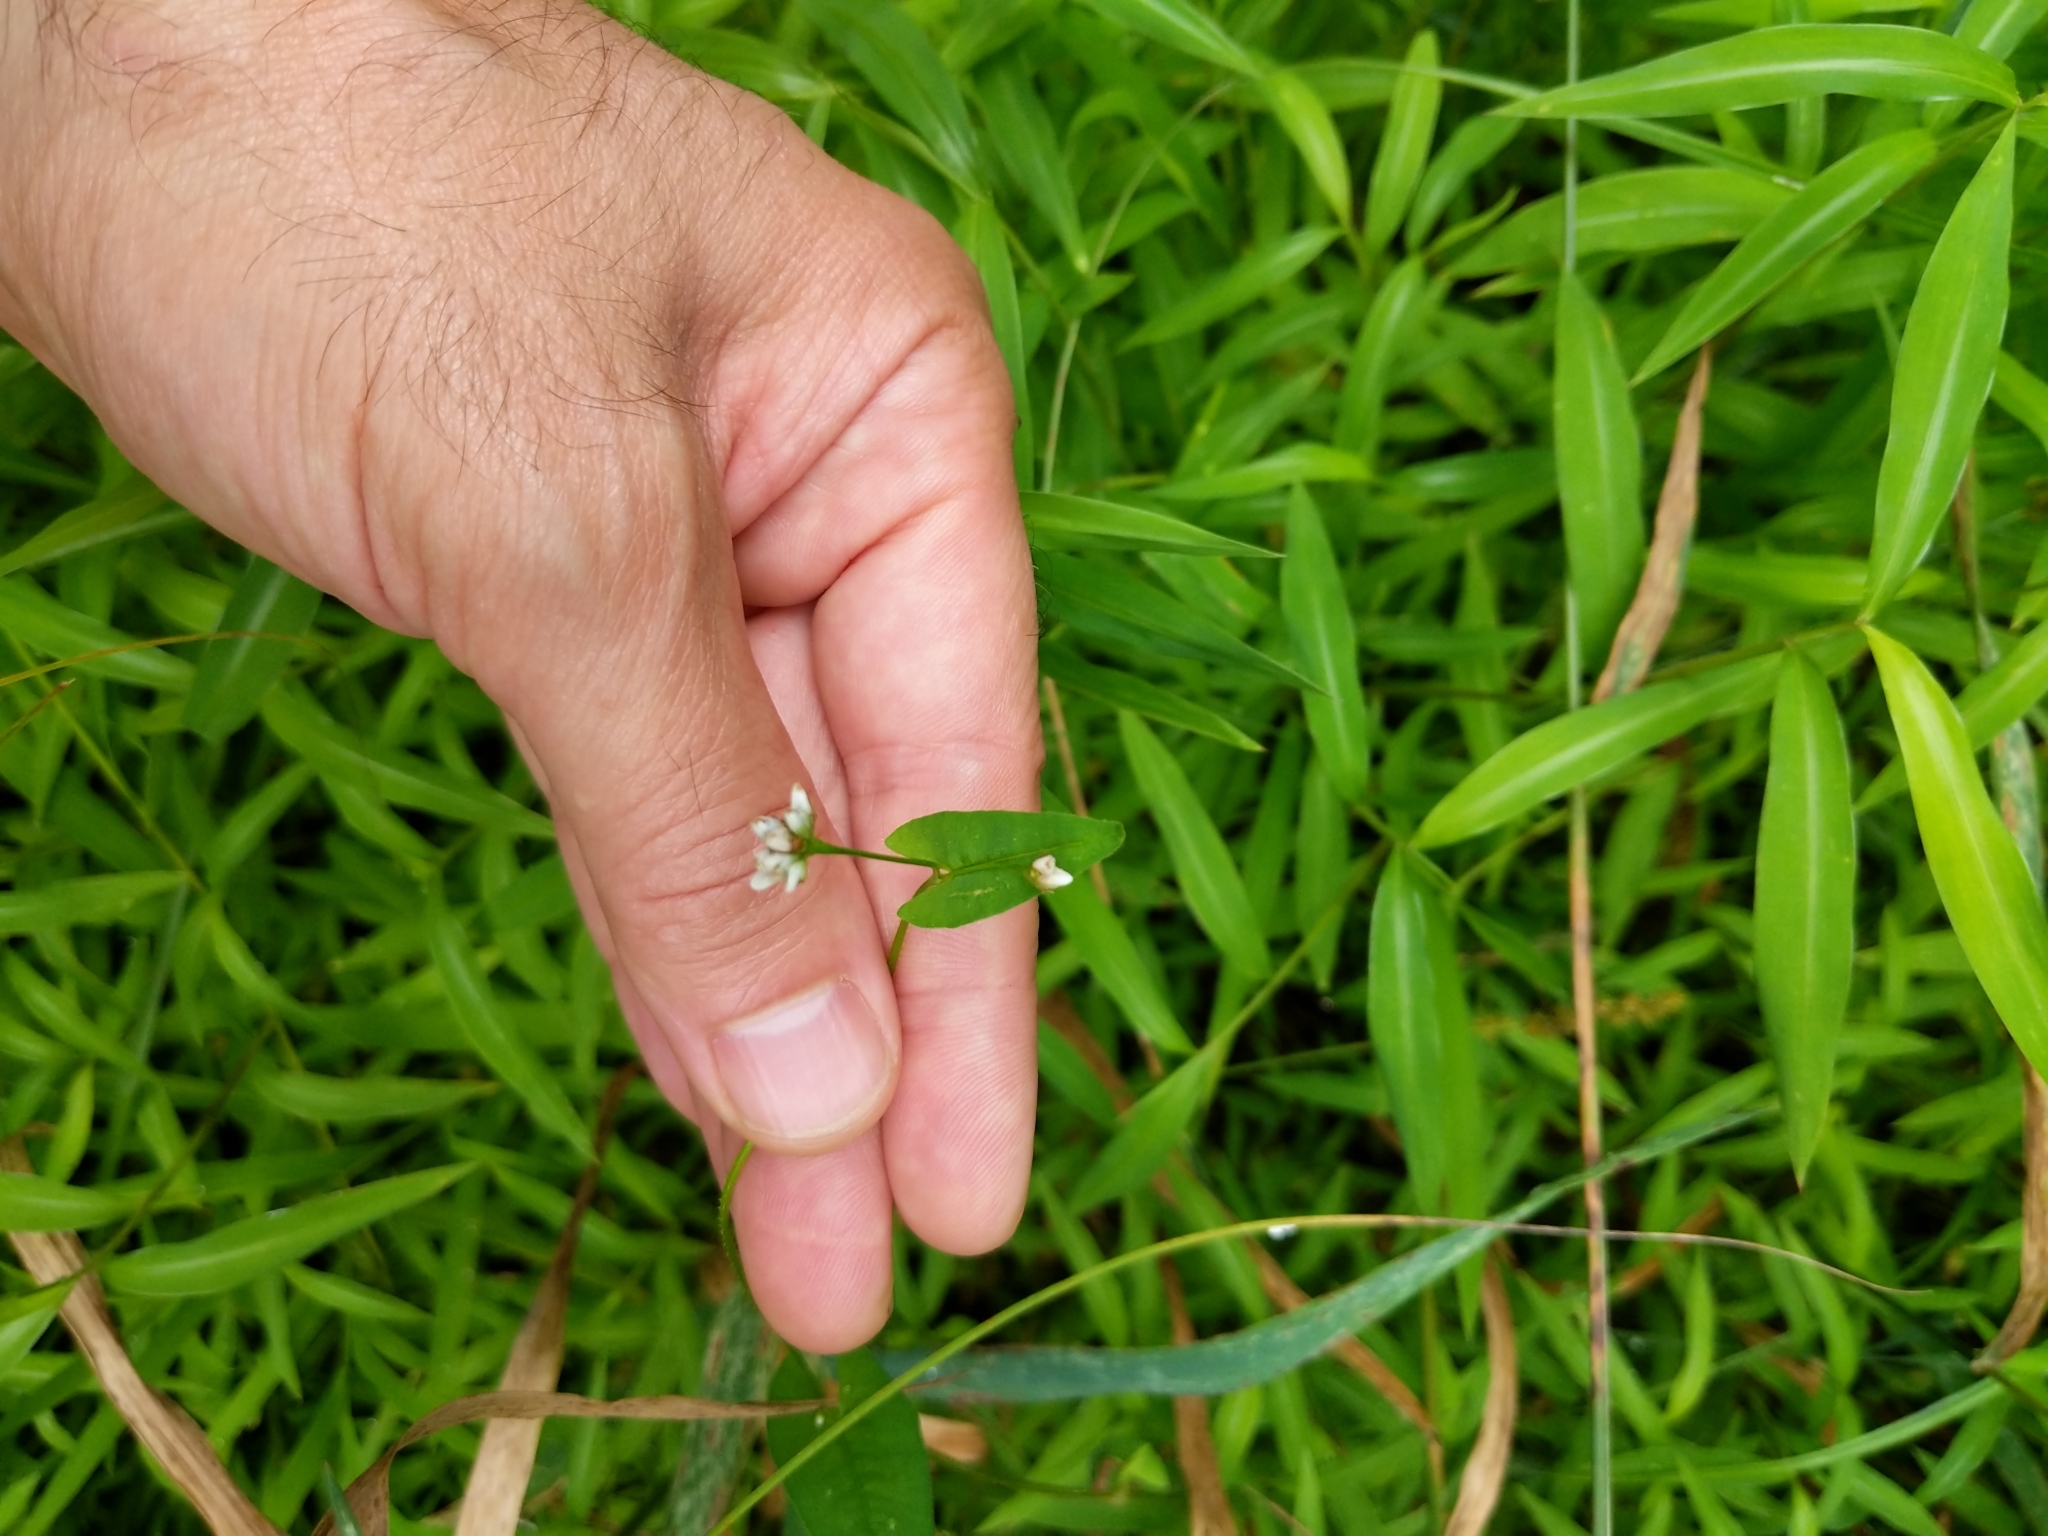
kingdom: Plantae
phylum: Tracheophyta
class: Magnoliopsida
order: Caryophyllales
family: Polygonaceae
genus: Persicaria
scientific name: Persicaria sagittata
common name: American tearthumb
